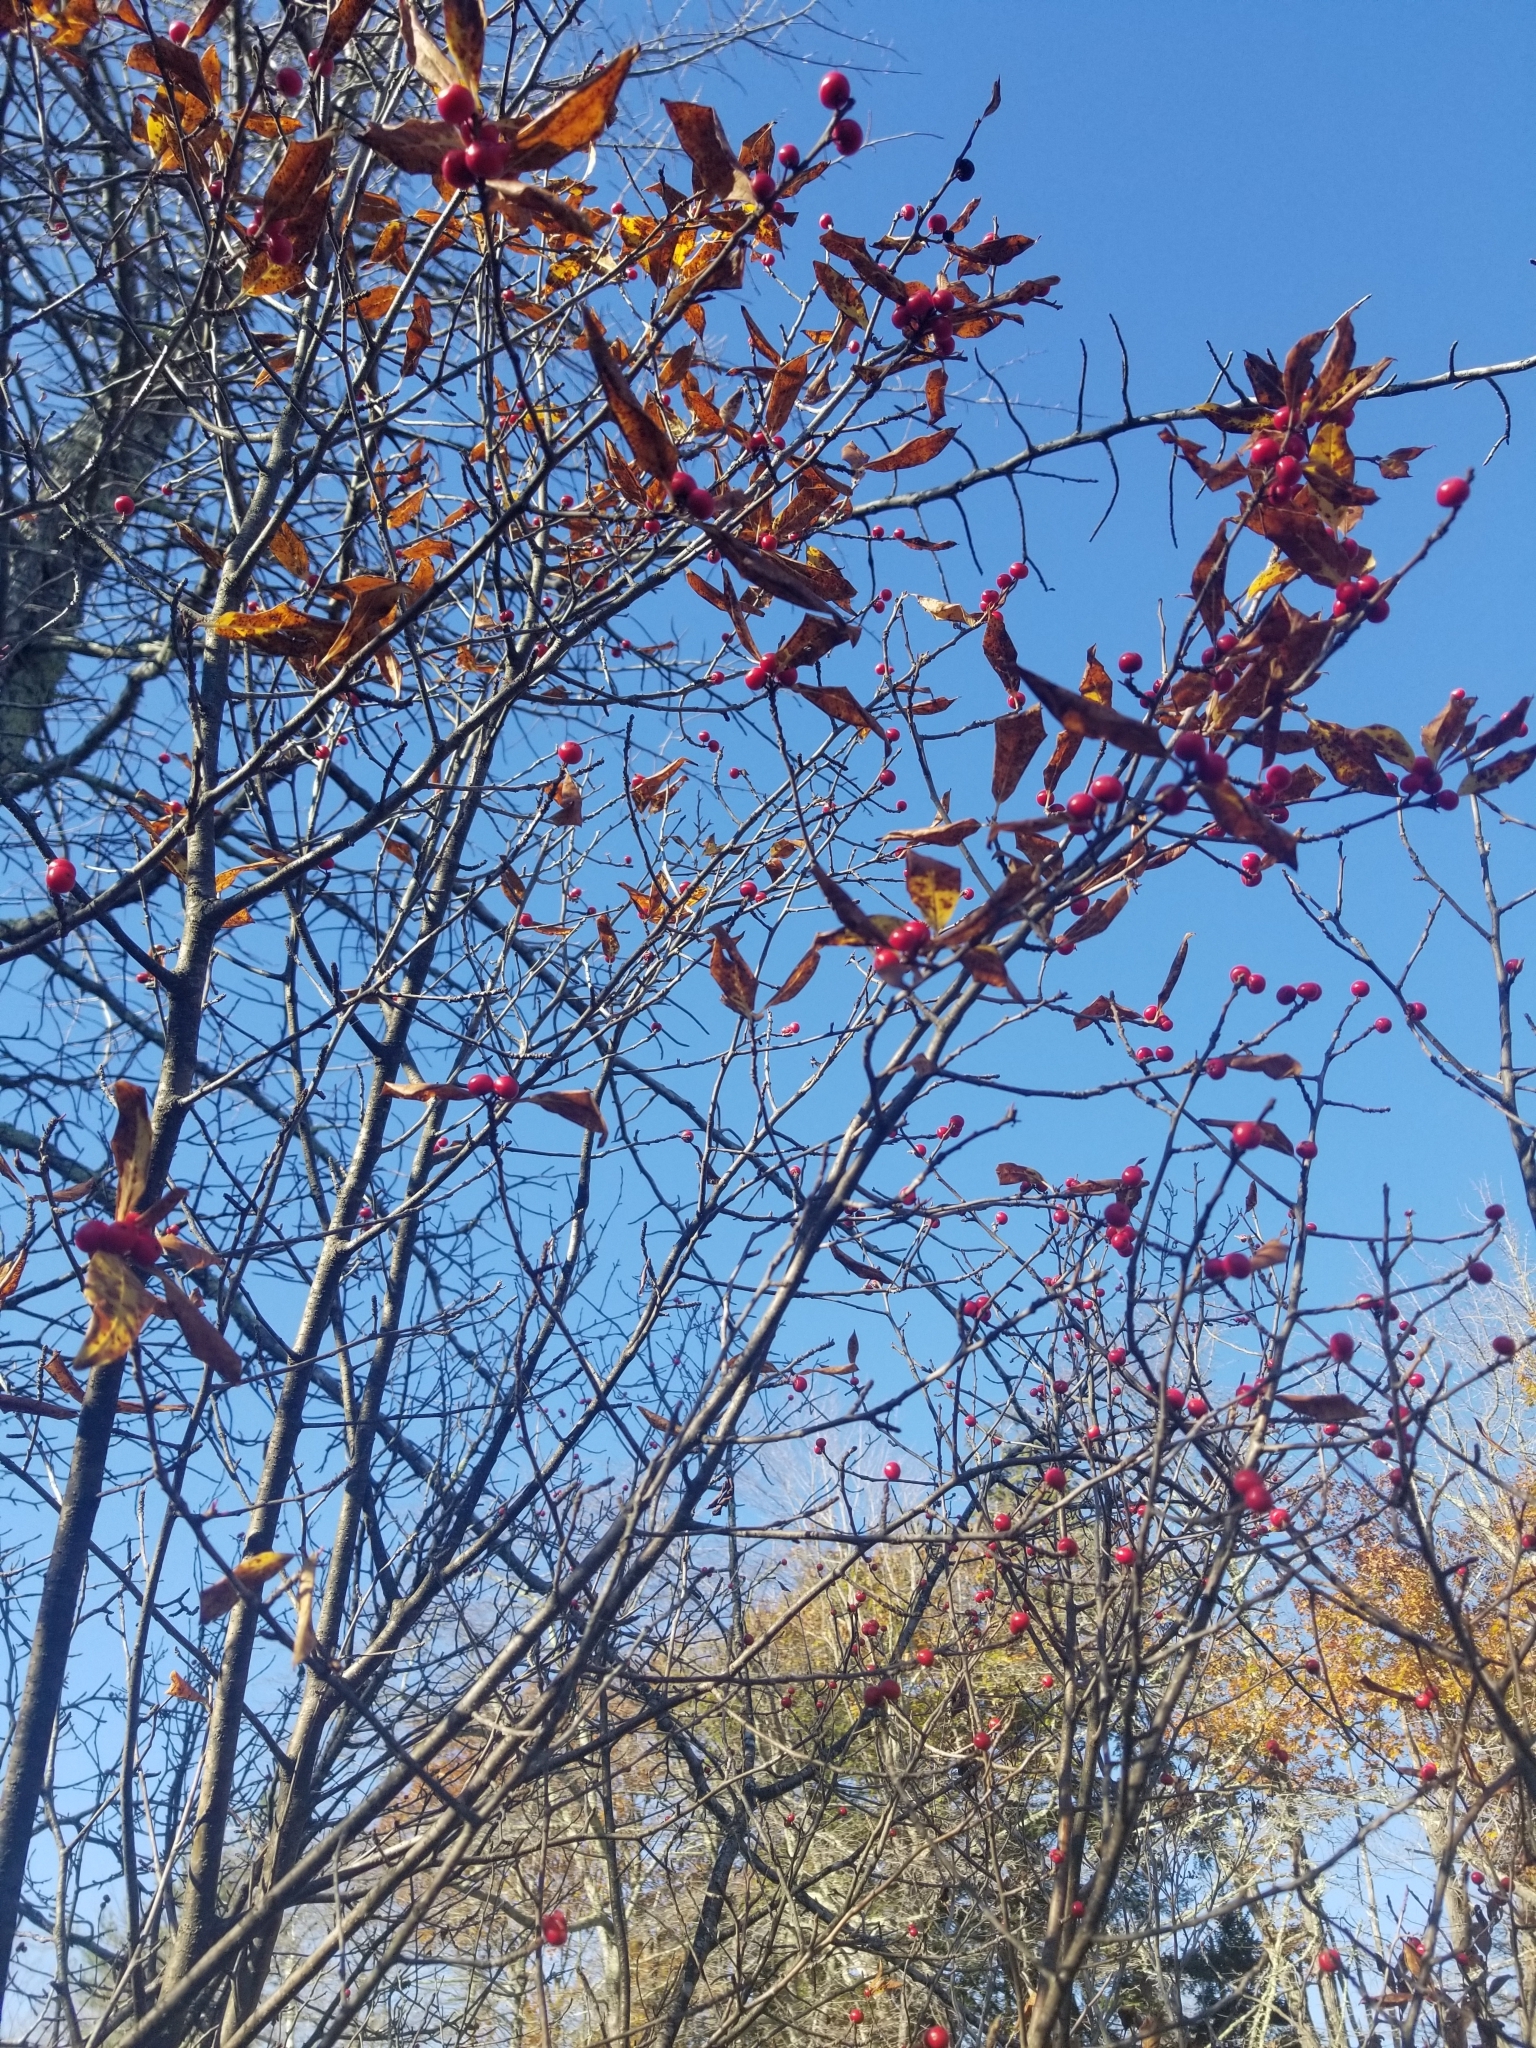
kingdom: Plantae
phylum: Tracheophyta
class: Magnoliopsida
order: Aquifoliales
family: Aquifoliaceae
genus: Ilex
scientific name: Ilex verticillata
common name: Virginia winterberry
